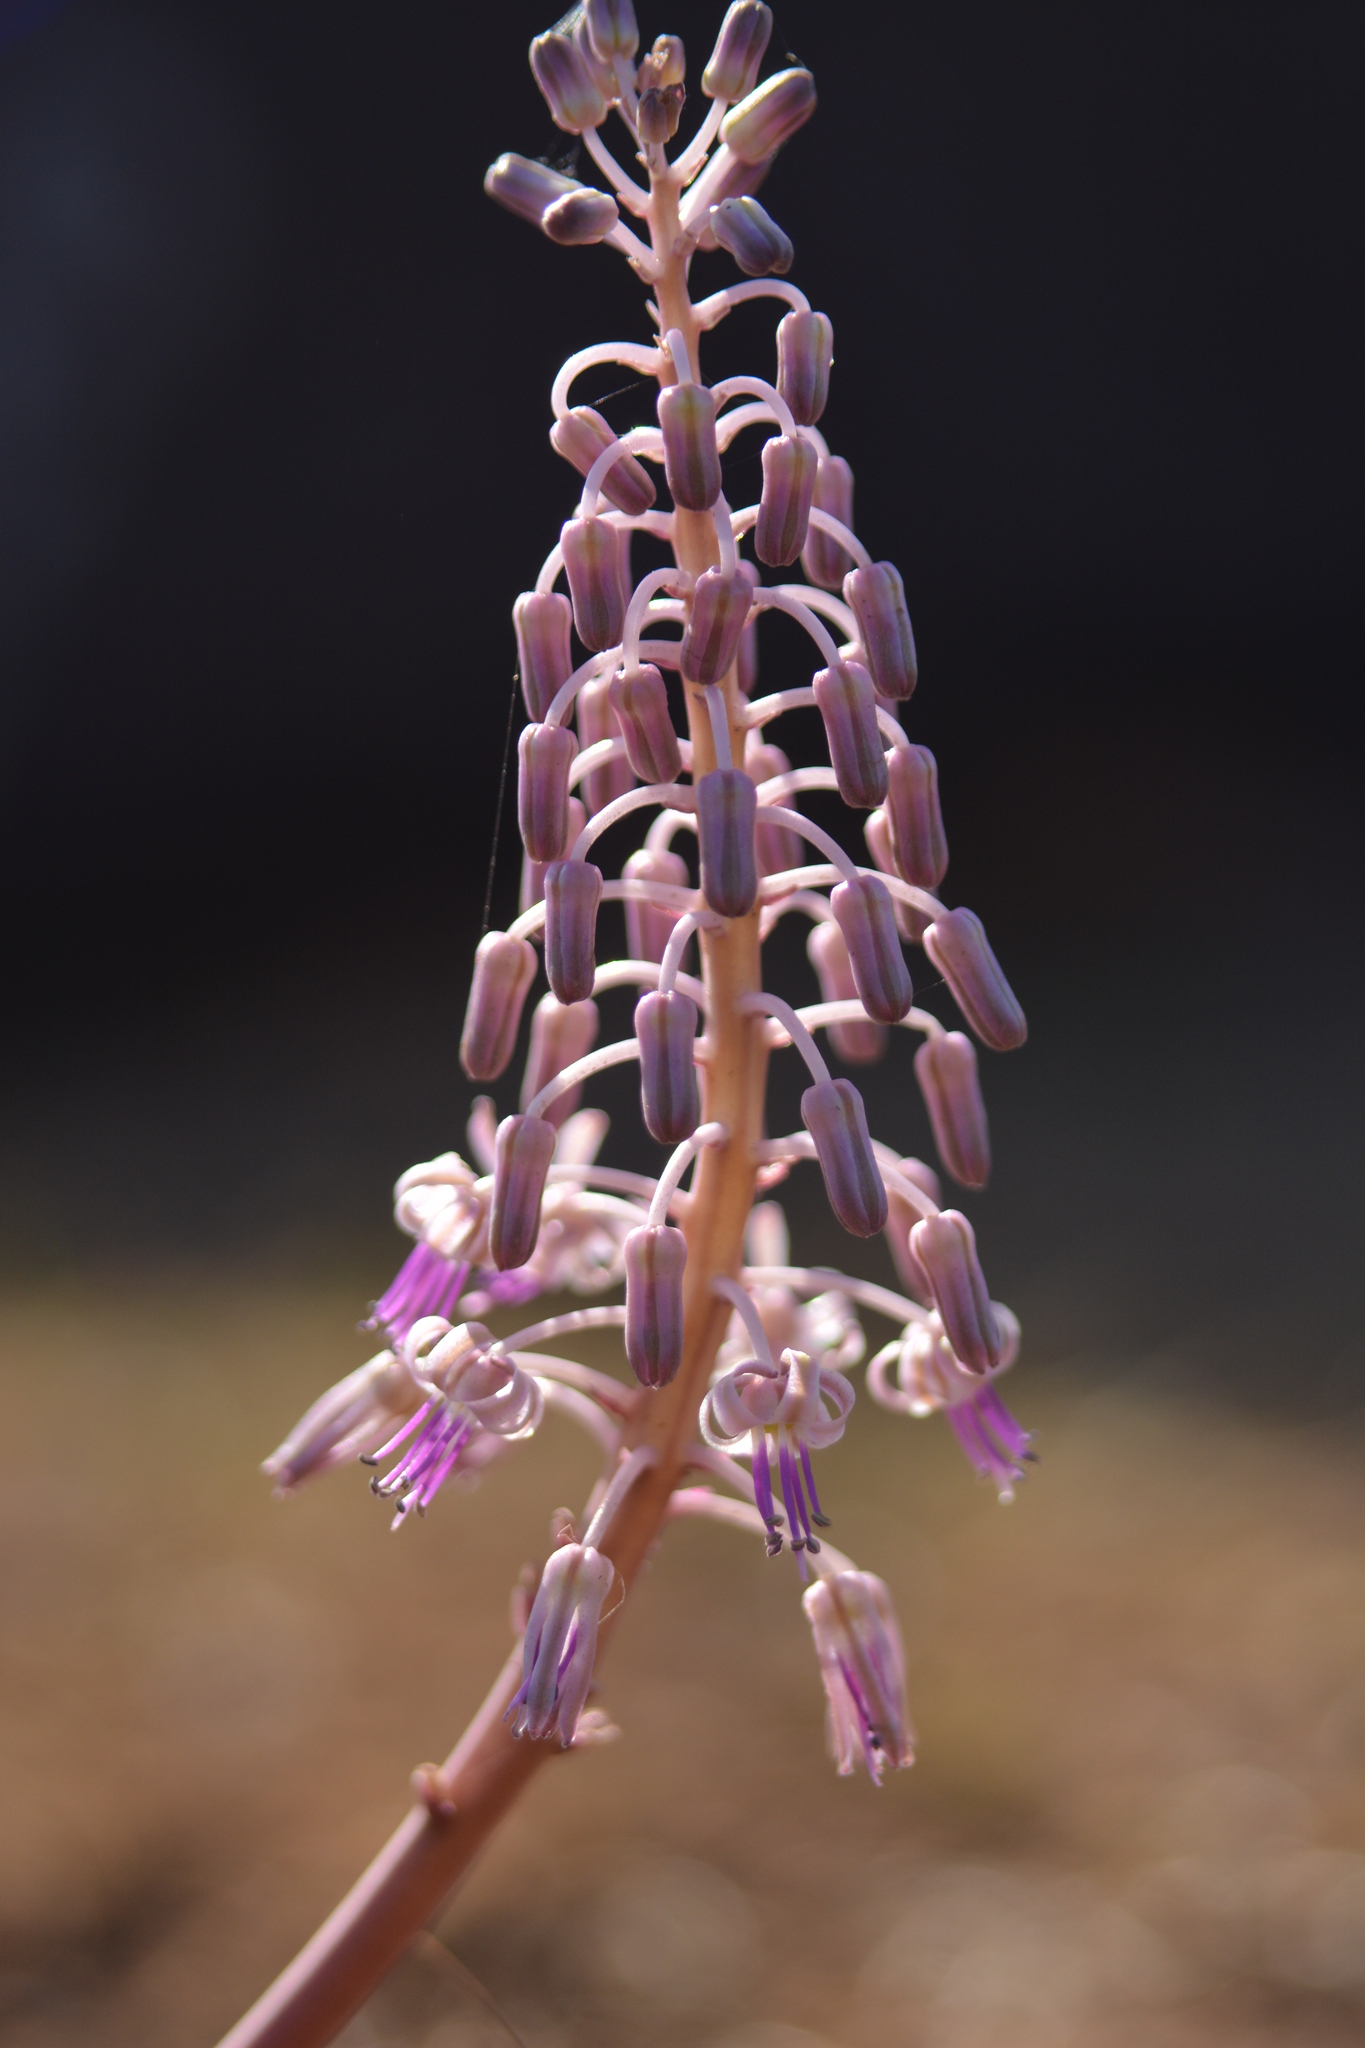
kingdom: Plantae
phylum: Tracheophyta
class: Liliopsida
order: Asparagales
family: Asparagaceae
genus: Ledebouria
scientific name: Ledebouria revoluta
